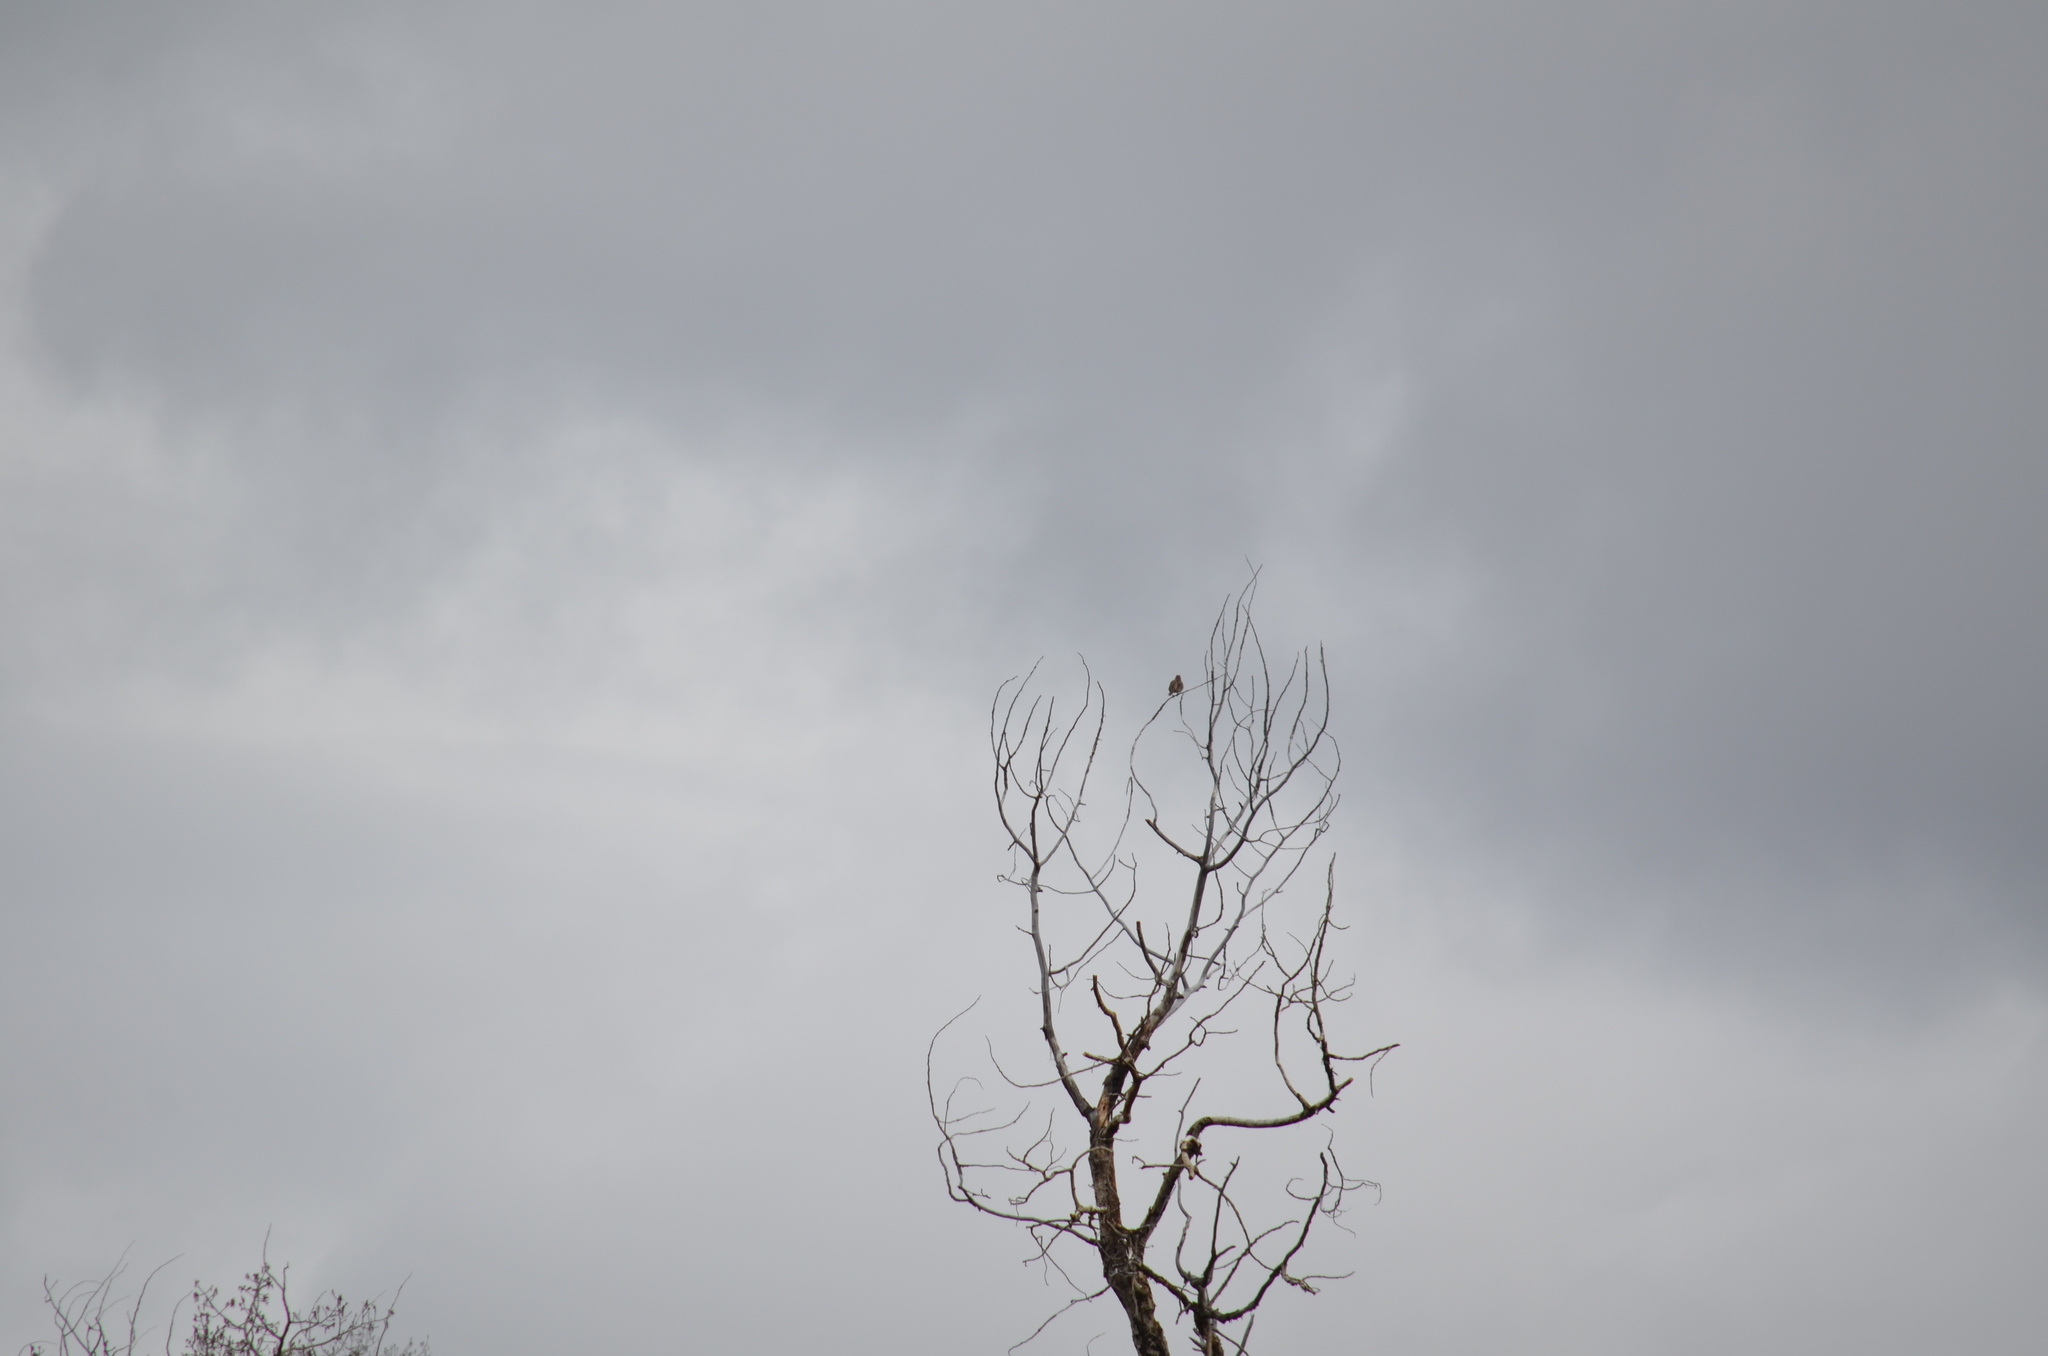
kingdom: Animalia
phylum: Chordata
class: Aves
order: Passeriformes
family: Icteridae
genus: Sturnella
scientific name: Sturnella neglecta
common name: Western meadowlark
